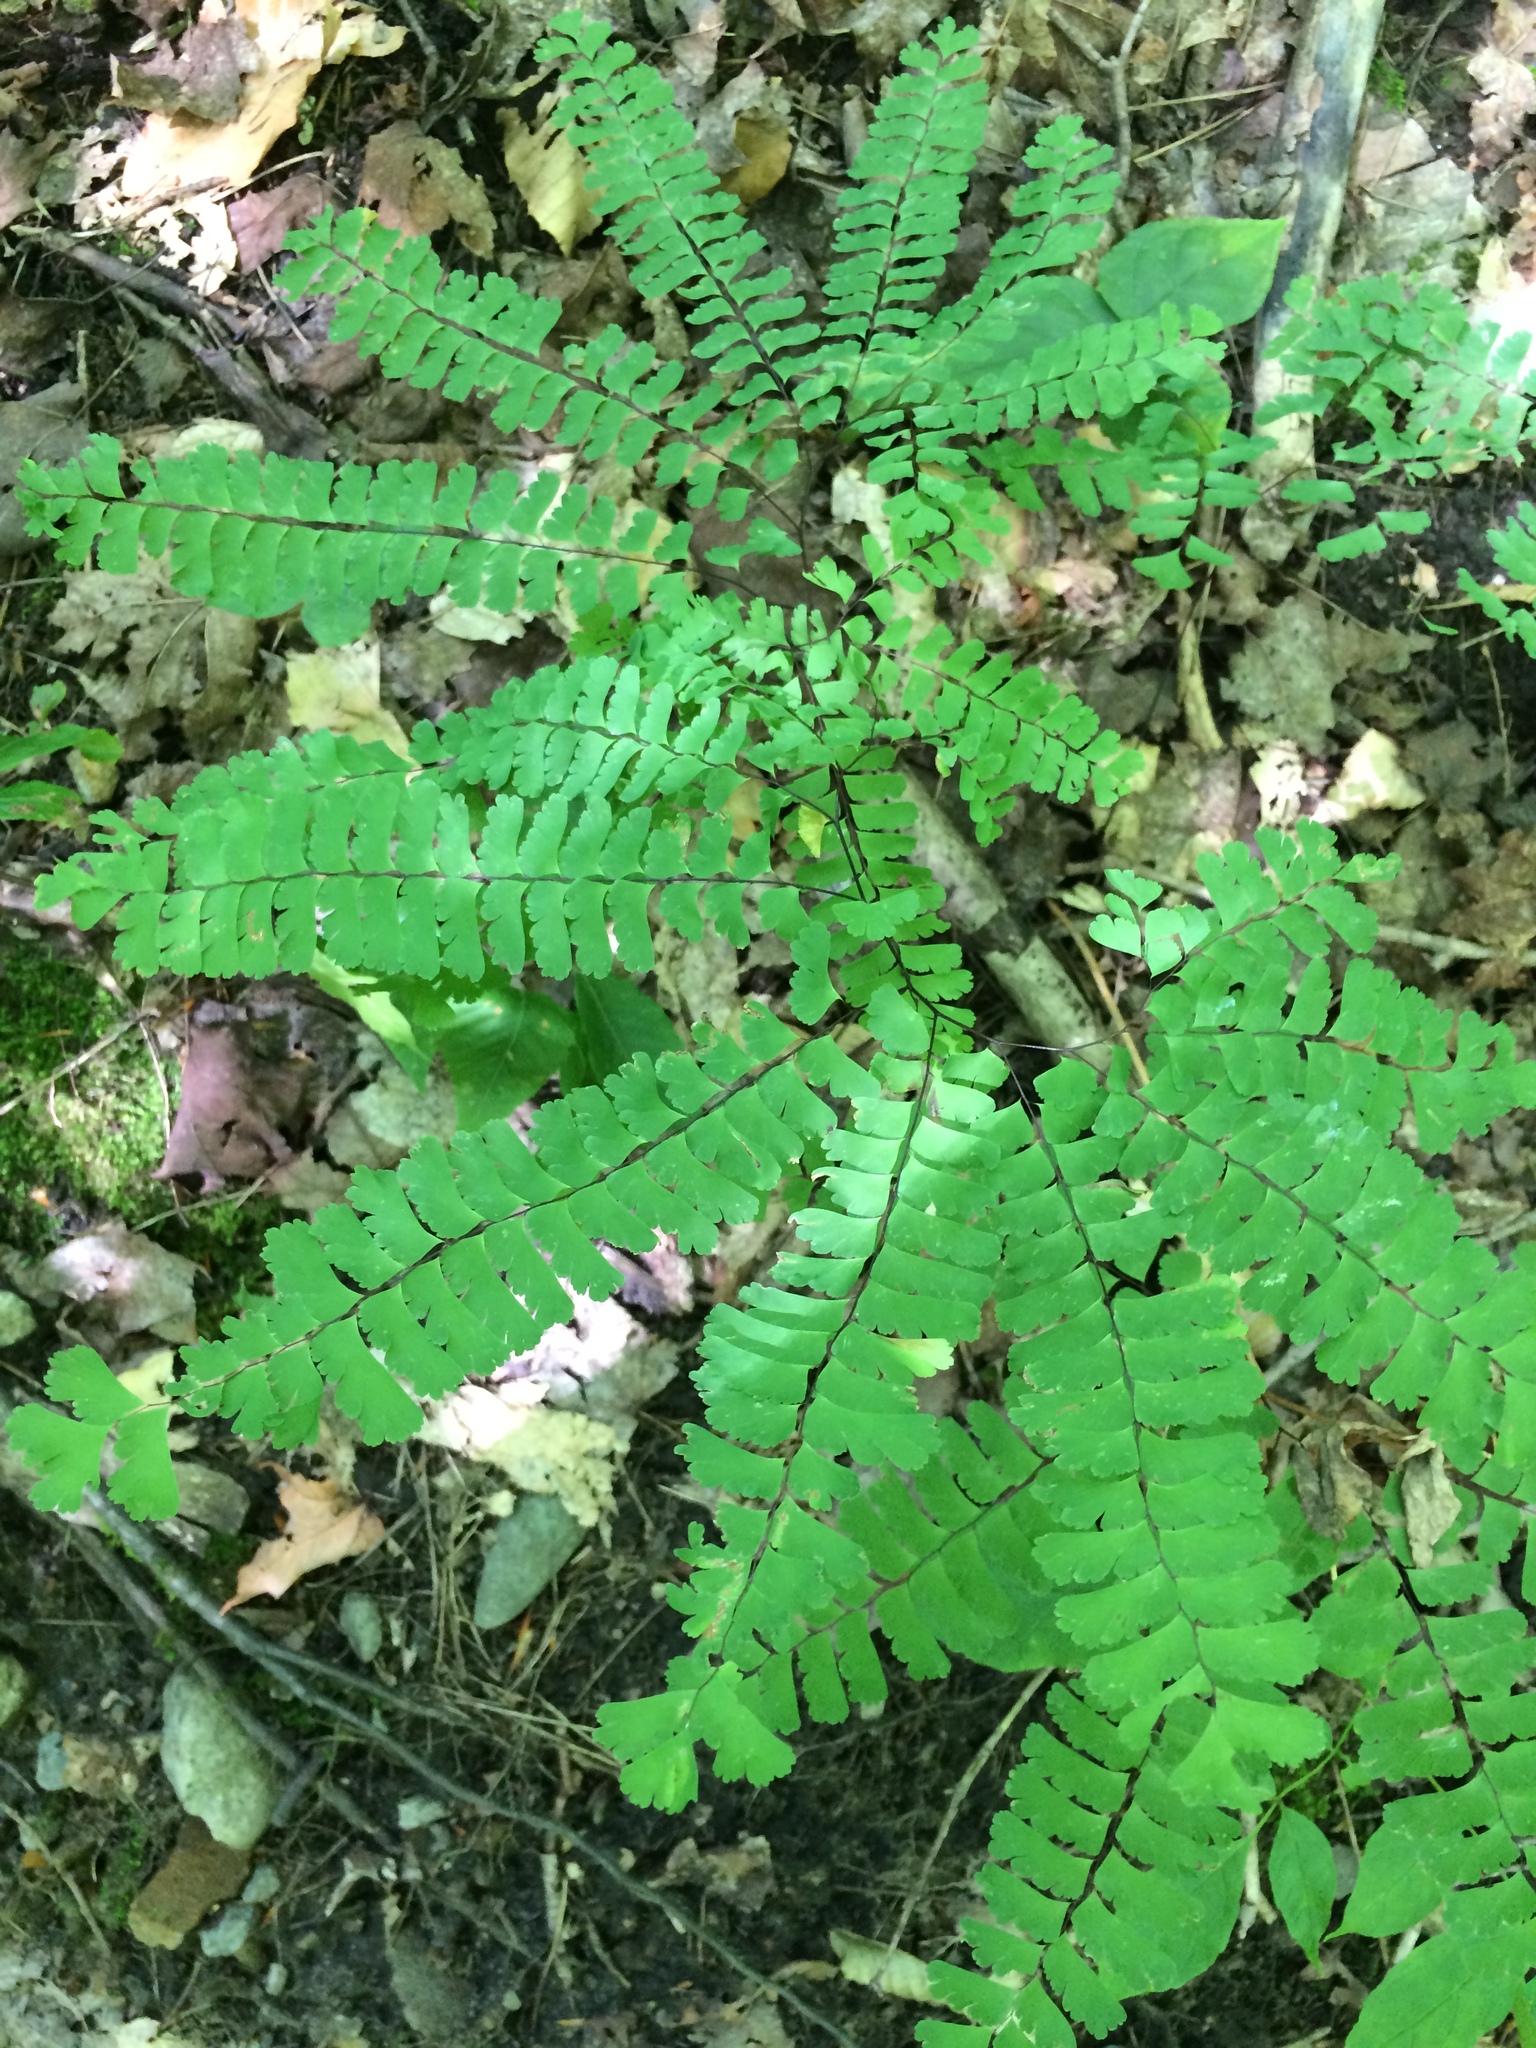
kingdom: Plantae
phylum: Tracheophyta
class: Polypodiopsida
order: Polypodiales
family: Pteridaceae
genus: Adiantum
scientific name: Adiantum pedatum
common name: Five-finger fern
